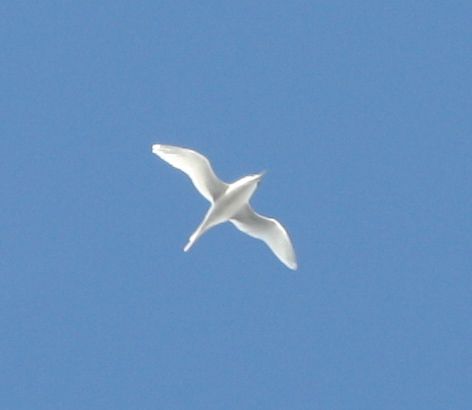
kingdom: Animalia
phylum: Chordata
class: Aves
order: Phaethontiformes
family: Phaethontidae
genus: Phaethon
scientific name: Phaethon lepturus
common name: White-tailed tropicbird
